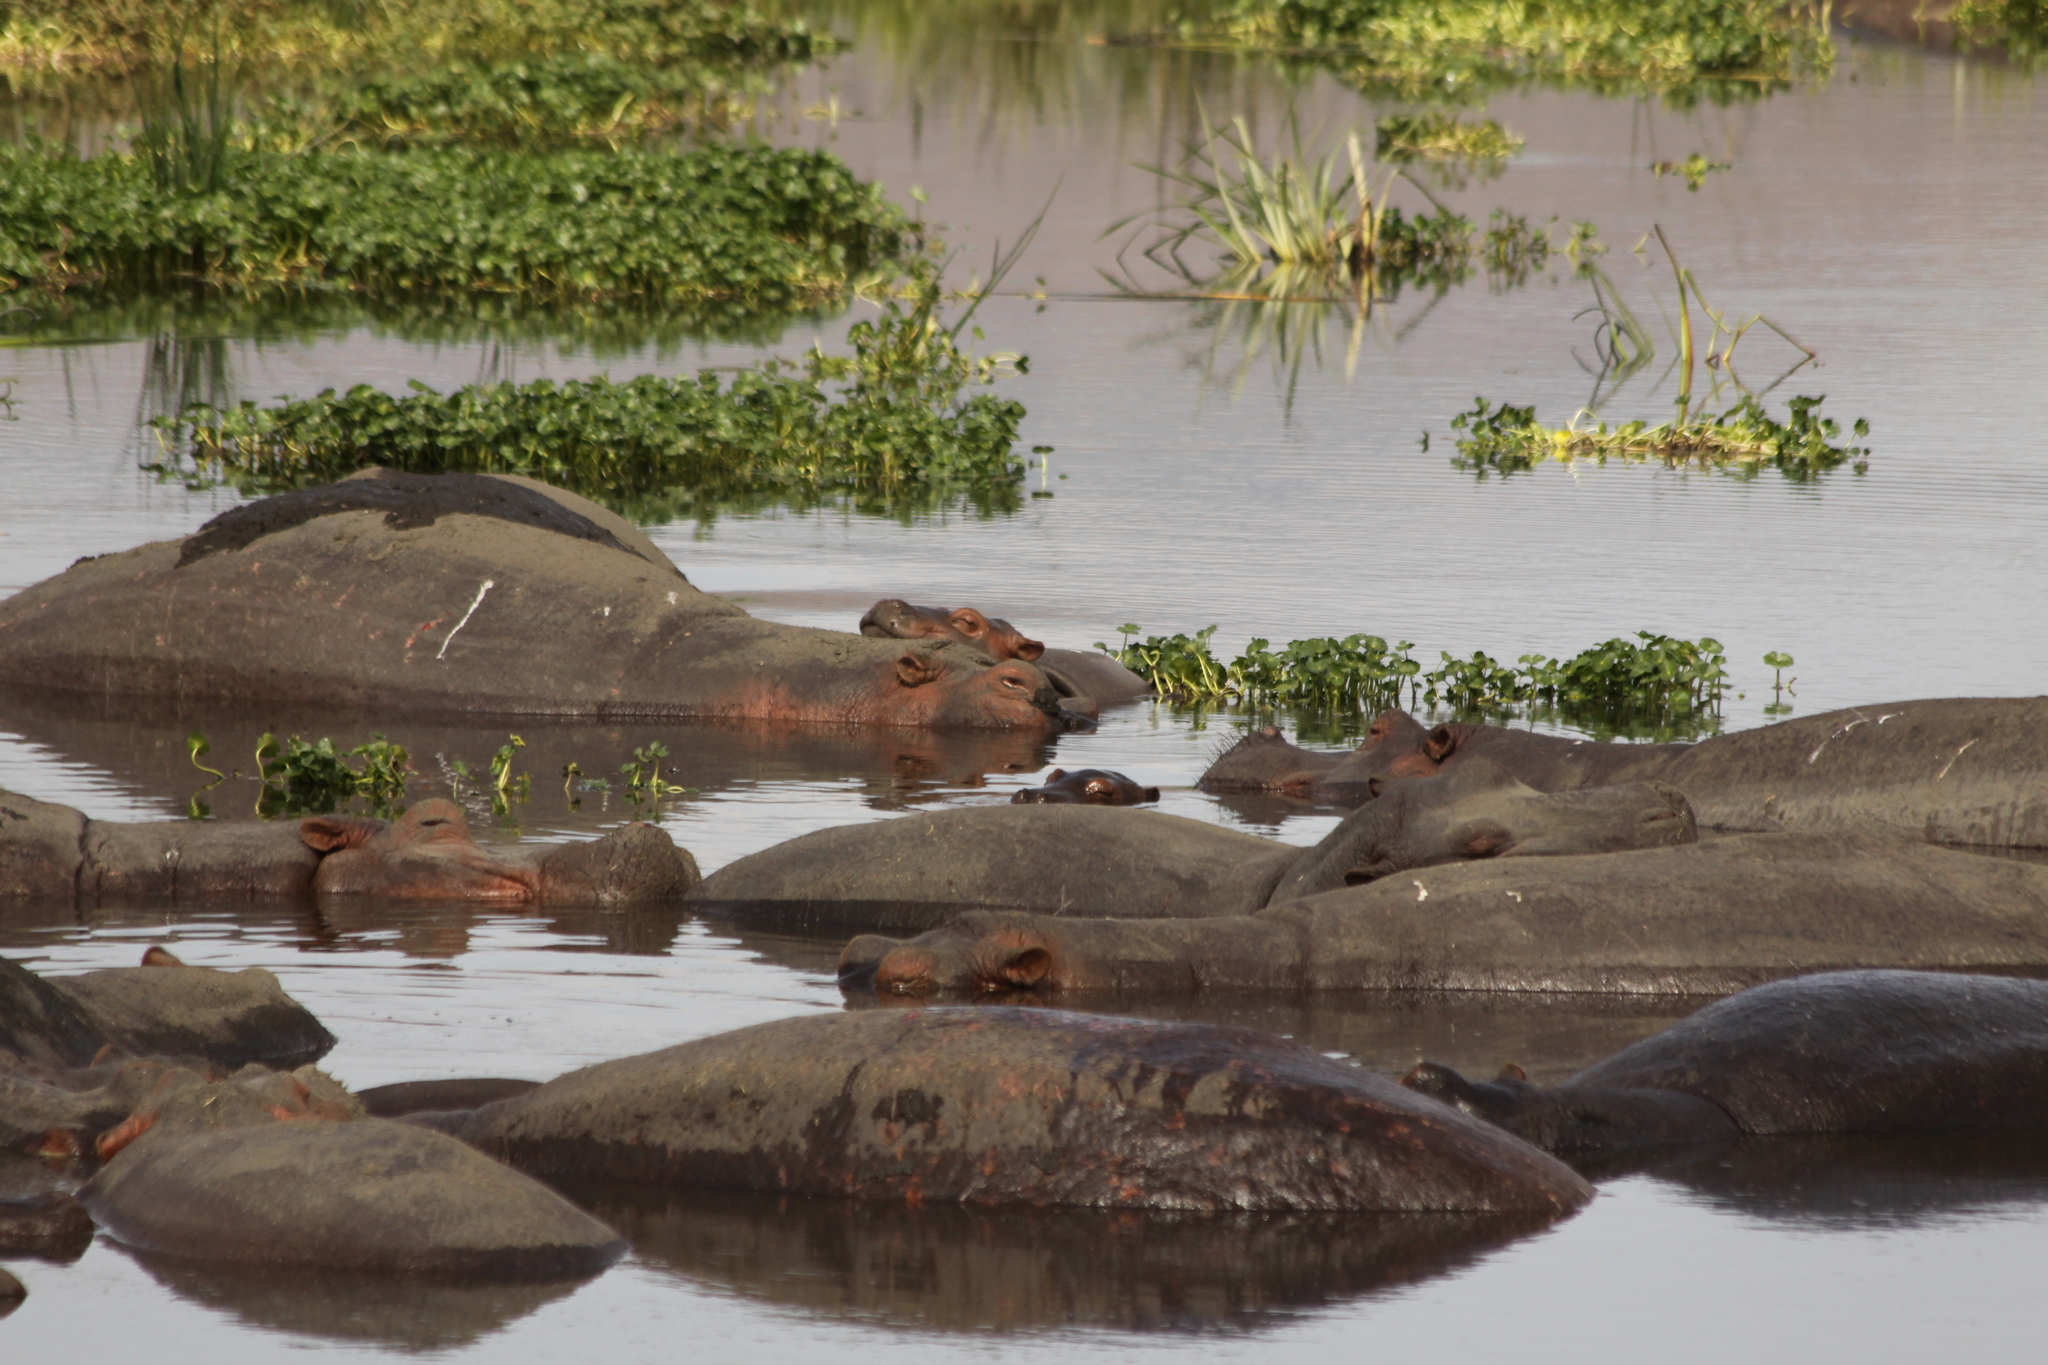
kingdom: Animalia
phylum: Chordata
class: Mammalia
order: Artiodactyla
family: Hippopotamidae
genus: Hippopotamus
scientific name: Hippopotamus amphibius
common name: Common hippopotamus
